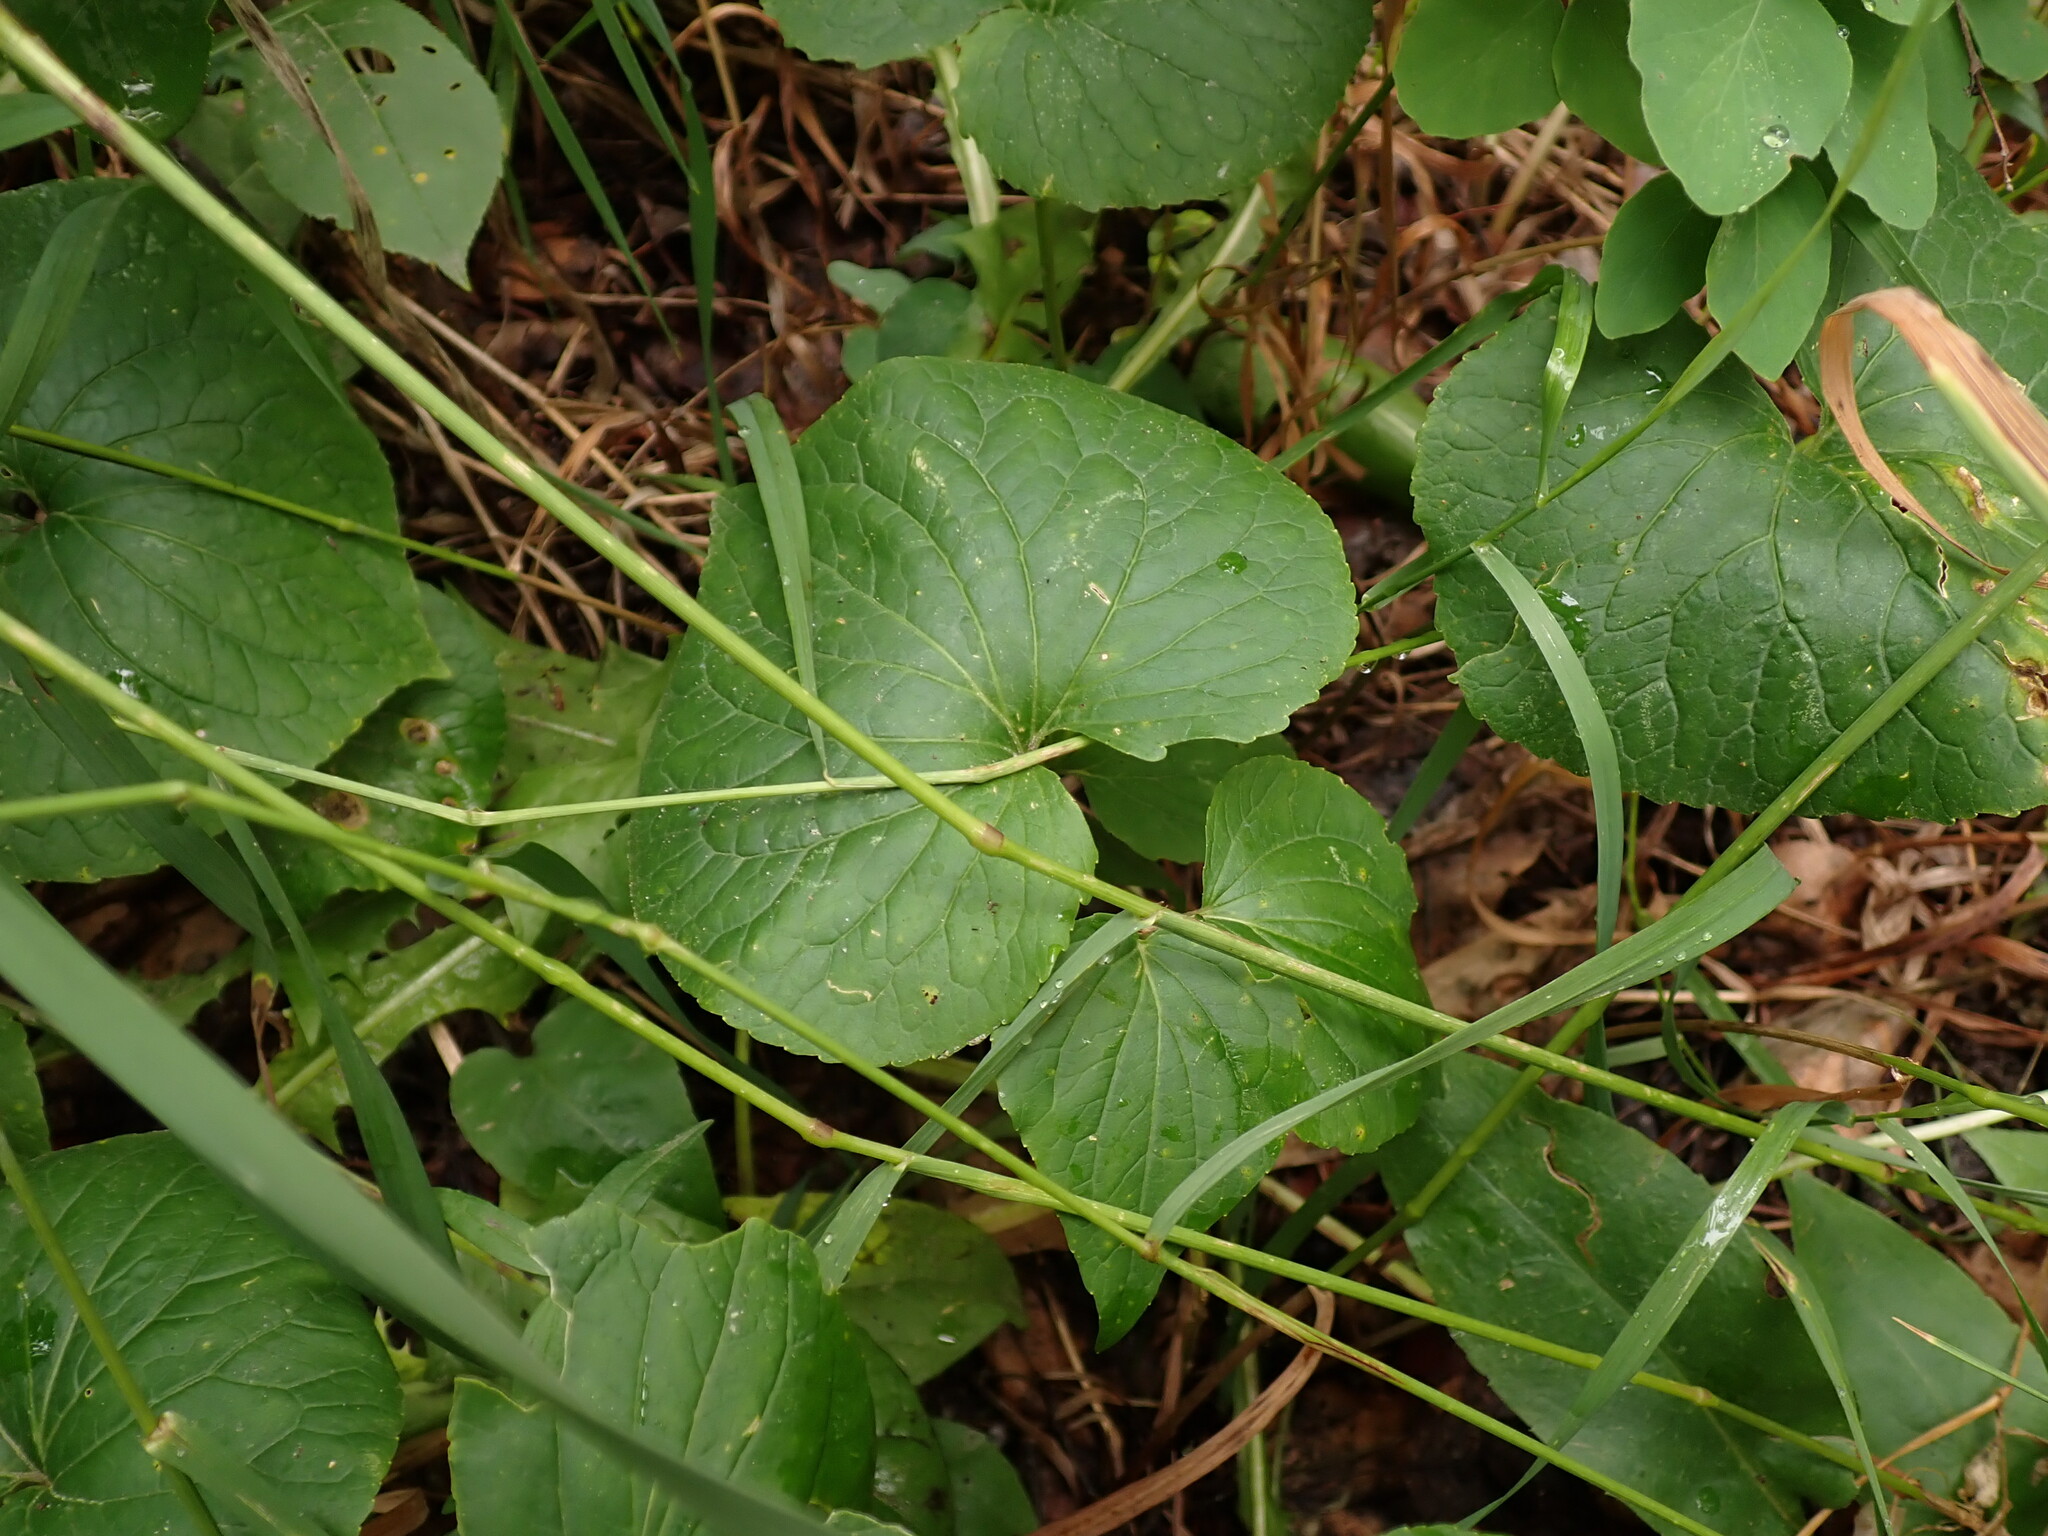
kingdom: Plantae
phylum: Tracheophyta
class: Magnoliopsida
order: Malpighiales
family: Violaceae
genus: Viola
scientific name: Viola canadensis
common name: Canada violet
